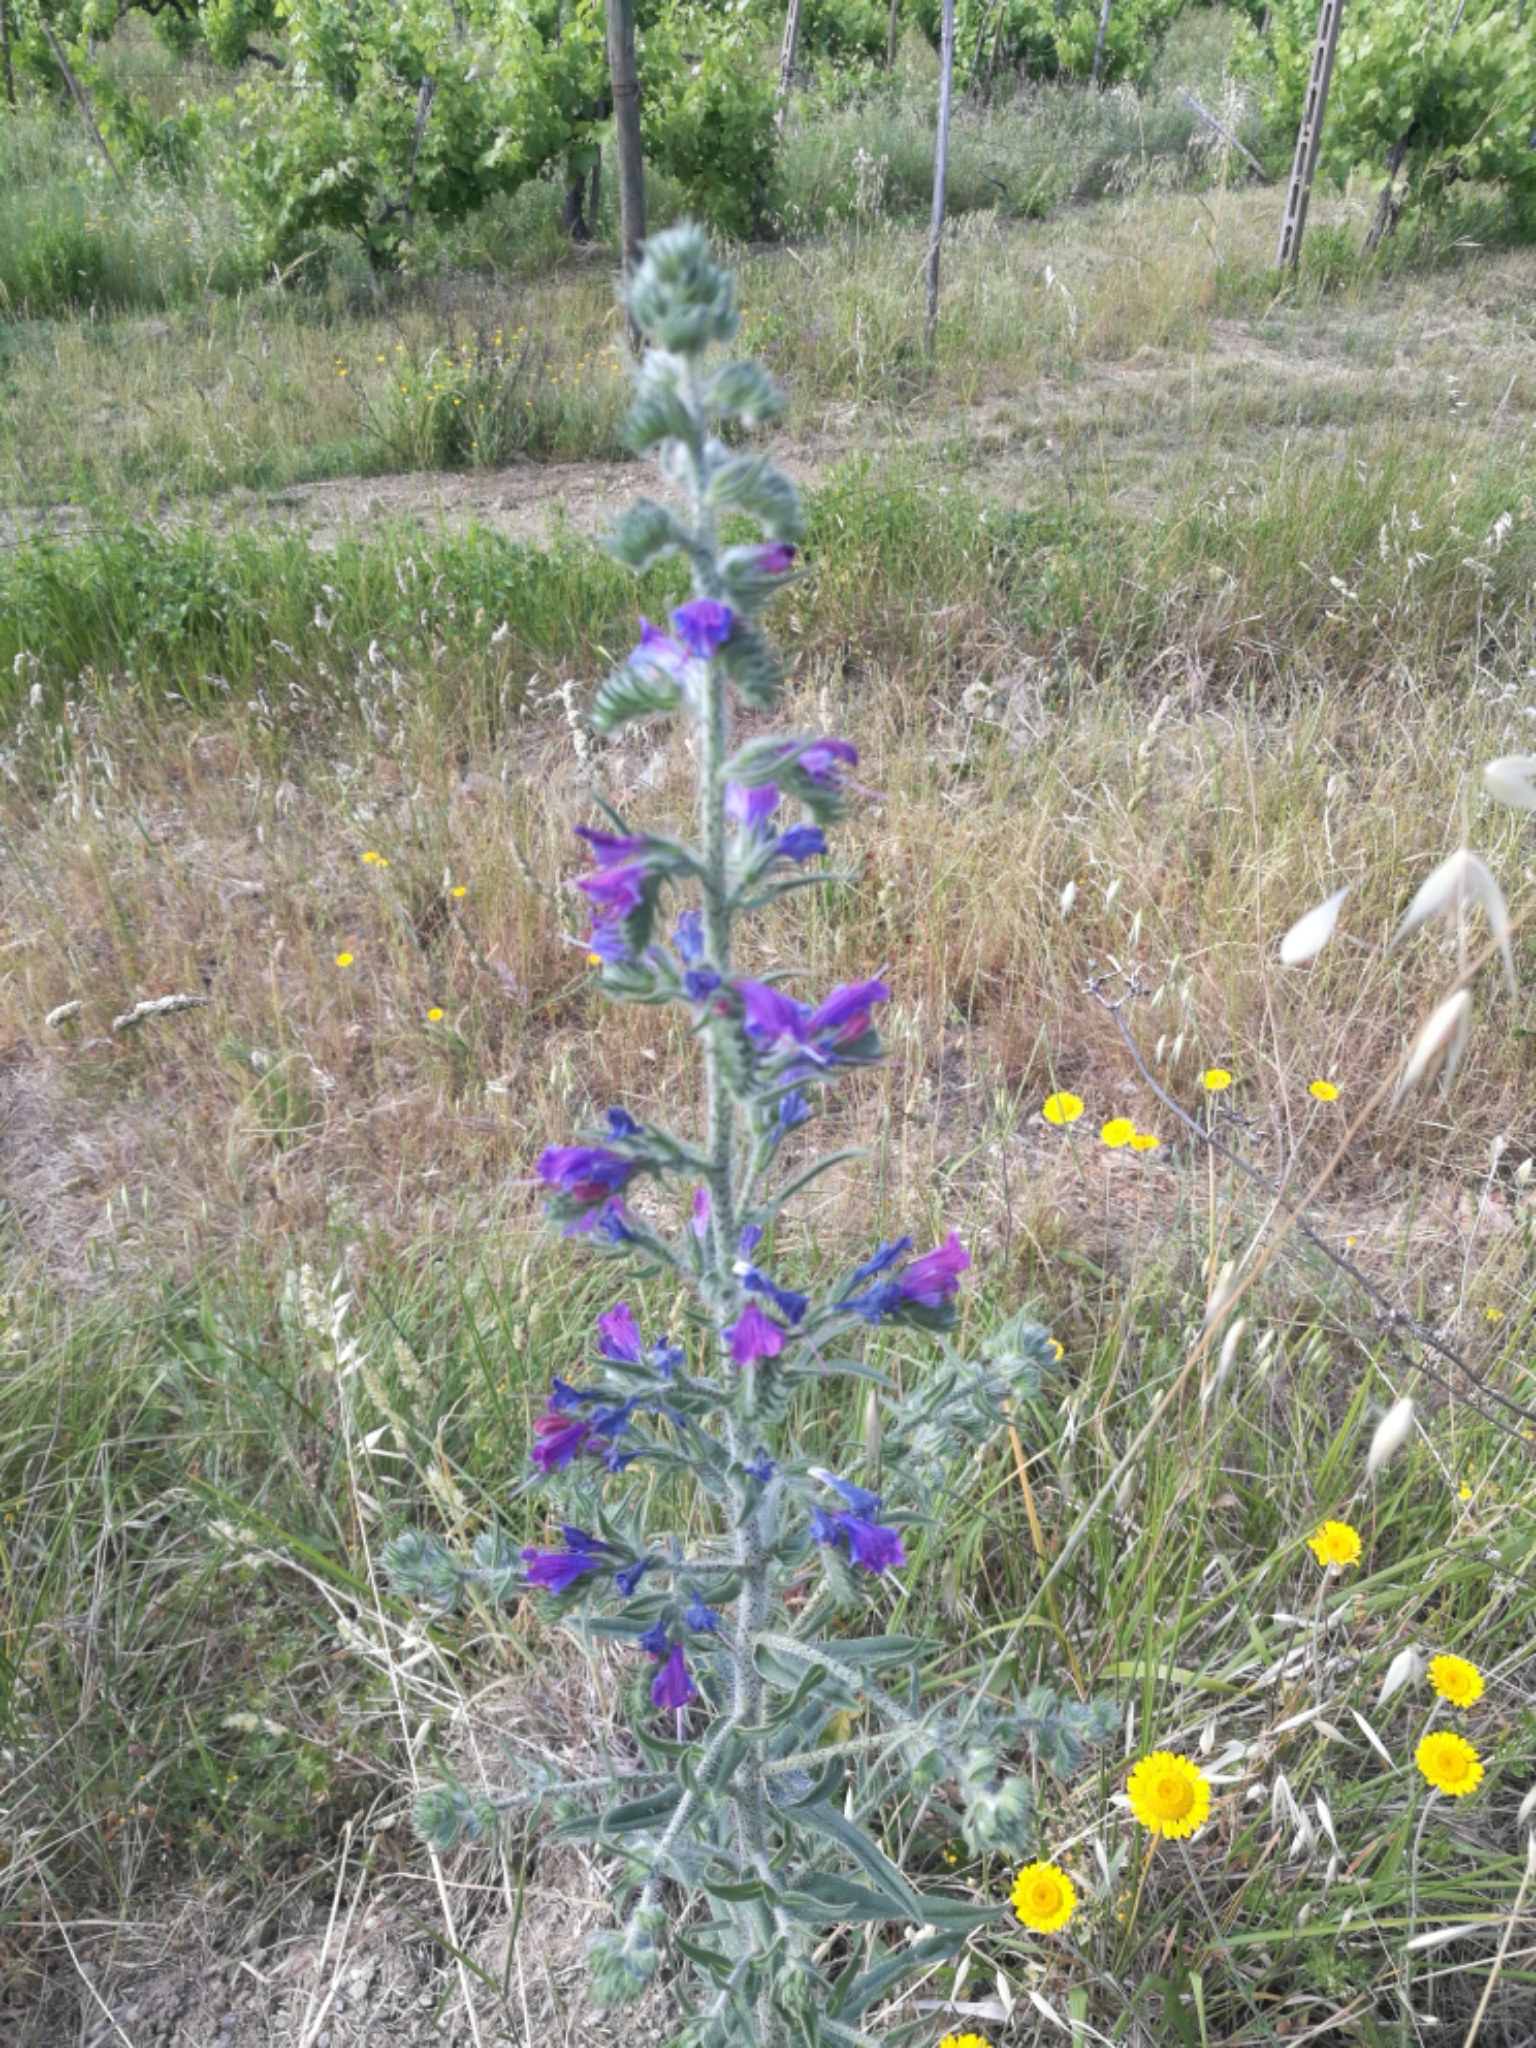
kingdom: Plantae
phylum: Tracheophyta
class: Magnoliopsida
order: Boraginales
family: Boraginaceae
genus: Echium
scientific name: Echium vulgare
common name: Common viper's bugloss
